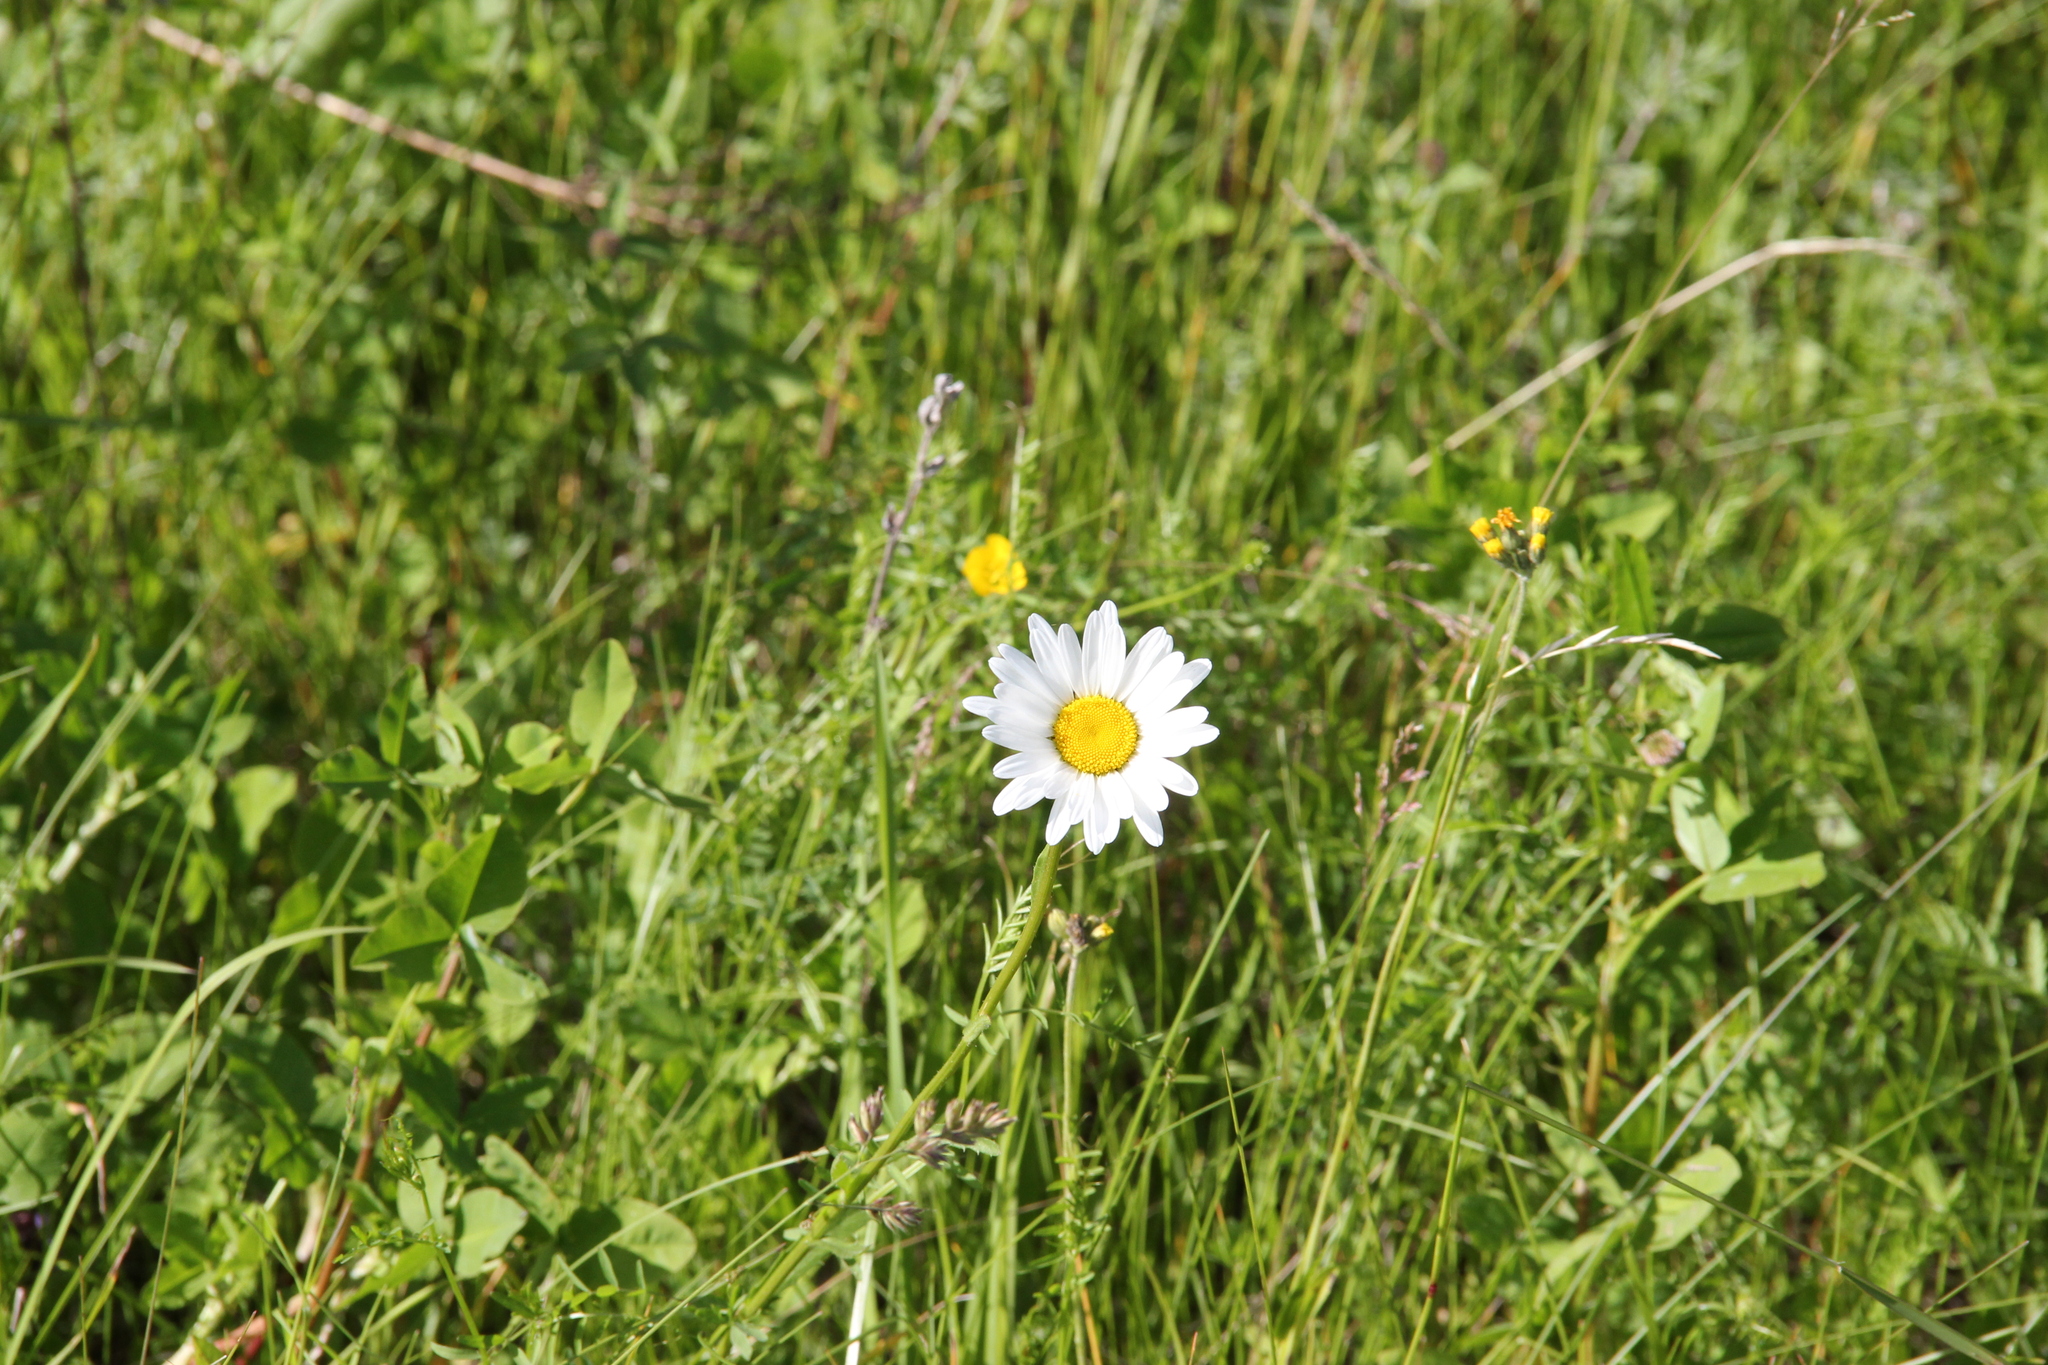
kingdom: Plantae
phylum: Tracheophyta
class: Magnoliopsida
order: Asterales
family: Asteraceae
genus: Leucanthemum
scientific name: Leucanthemum vulgare
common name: Oxeye daisy
